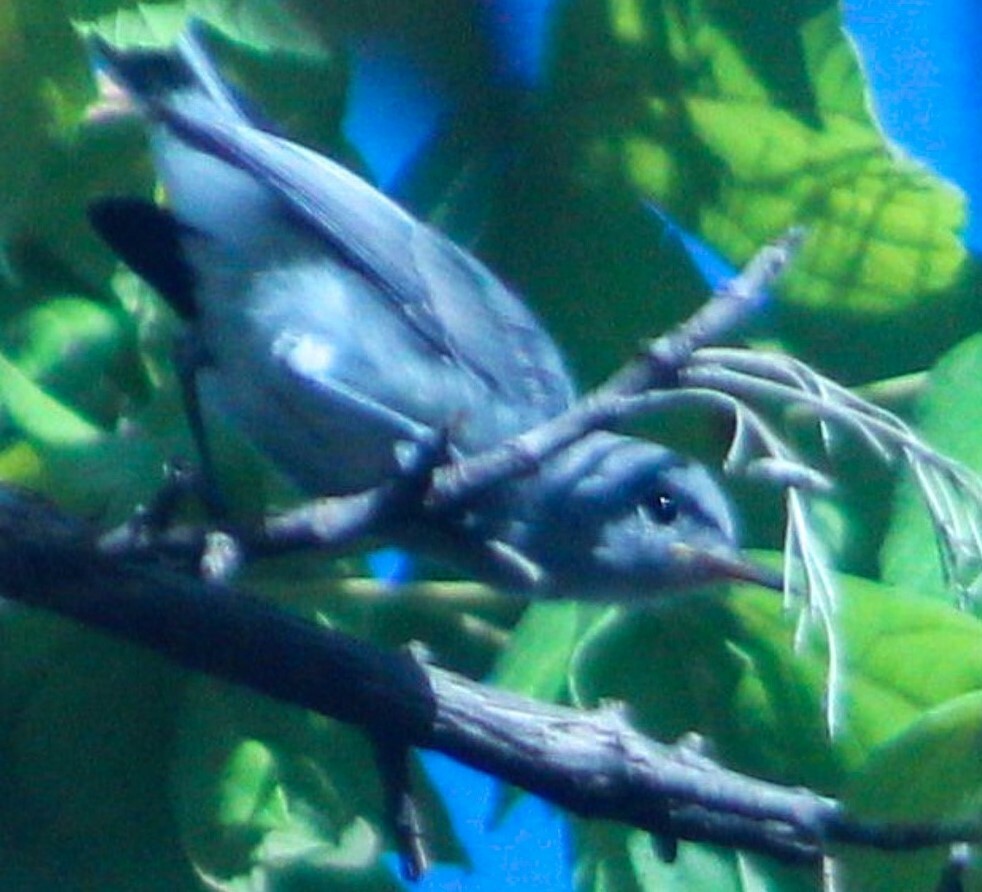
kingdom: Animalia
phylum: Chordata
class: Aves
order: Passeriformes
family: Polioptilidae
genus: Polioptila
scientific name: Polioptila caerulea
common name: Blue-gray gnatcatcher
